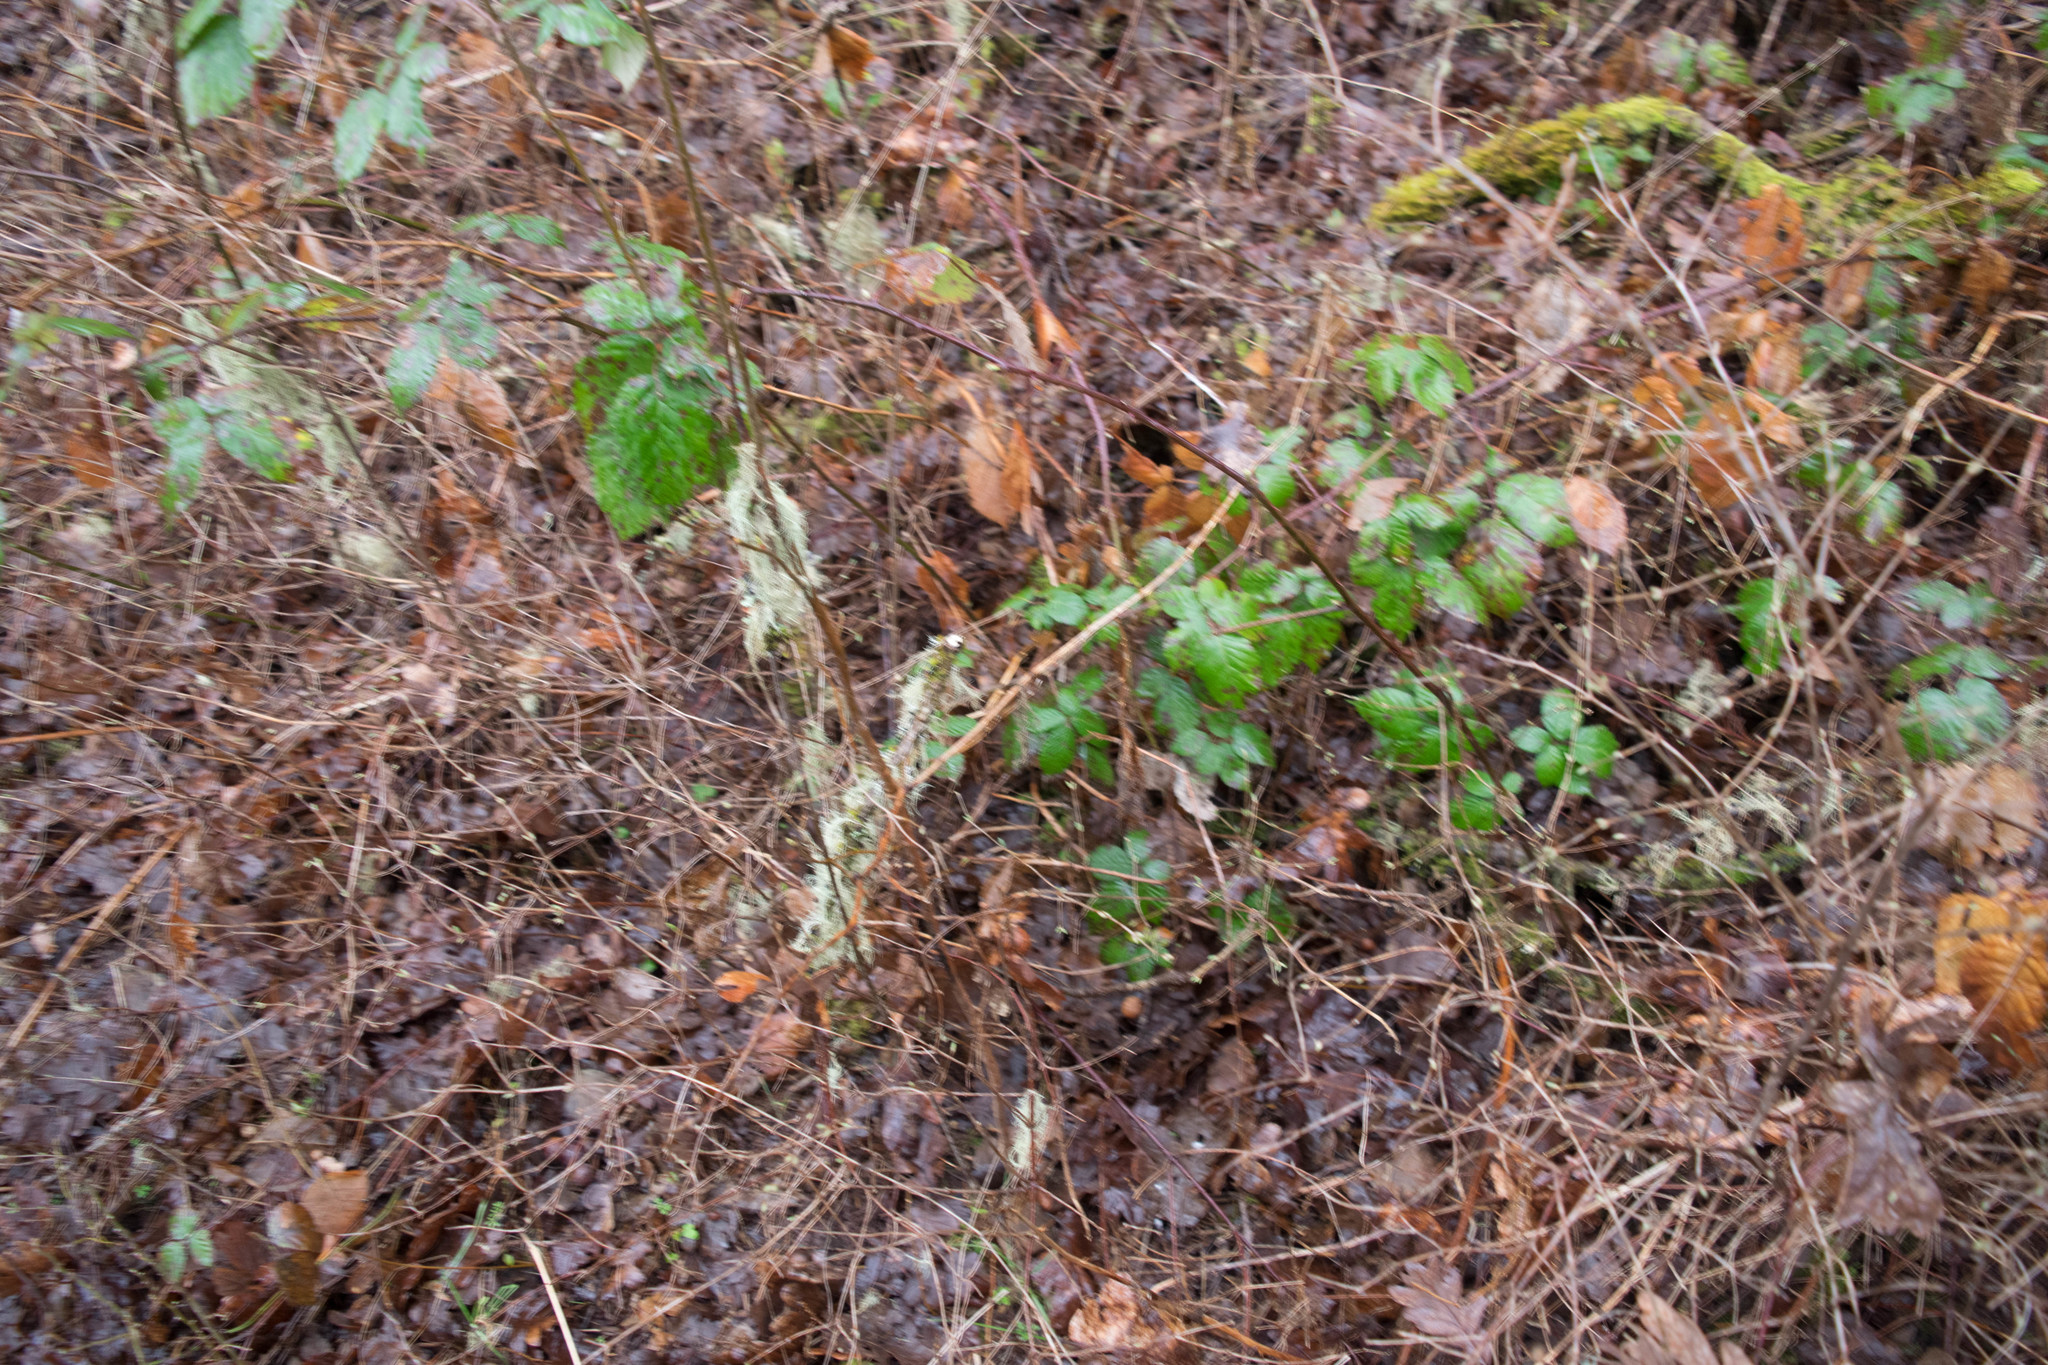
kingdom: Plantae
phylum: Tracheophyta
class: Magnoliopsida
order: Rosales
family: Rosaceae
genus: Rubus
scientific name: Rubus armeniacus
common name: Himalayan blackberry
